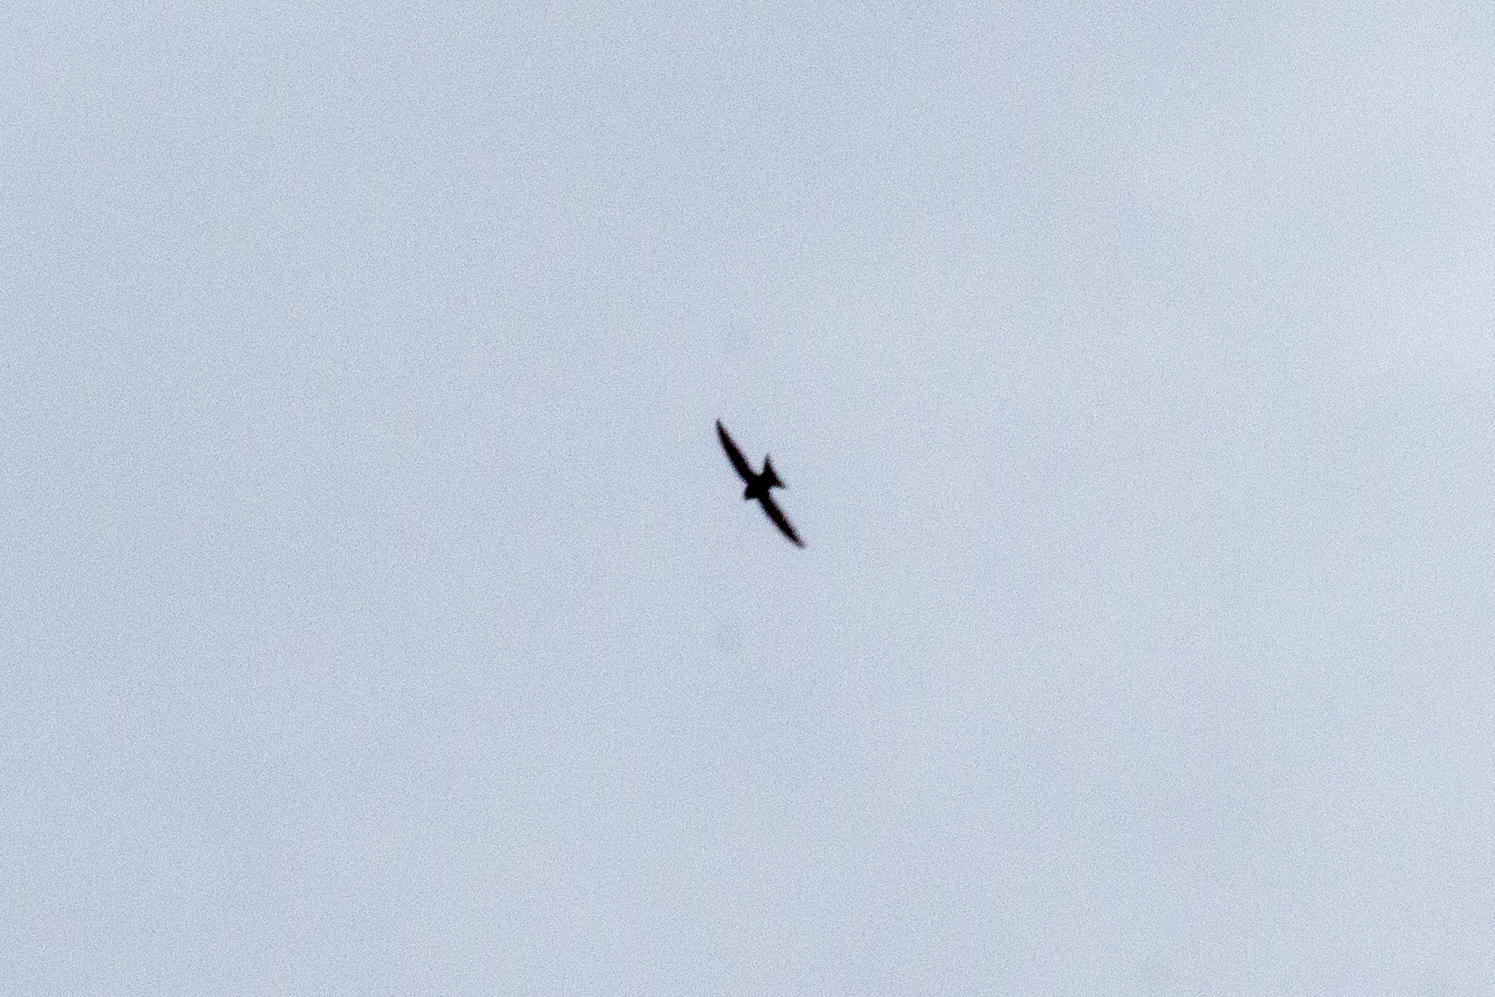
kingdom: Animalia
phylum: Chordata
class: Aves
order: Apodiformes
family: Apodidae
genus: Apus
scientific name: Apus apus
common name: Common swift
